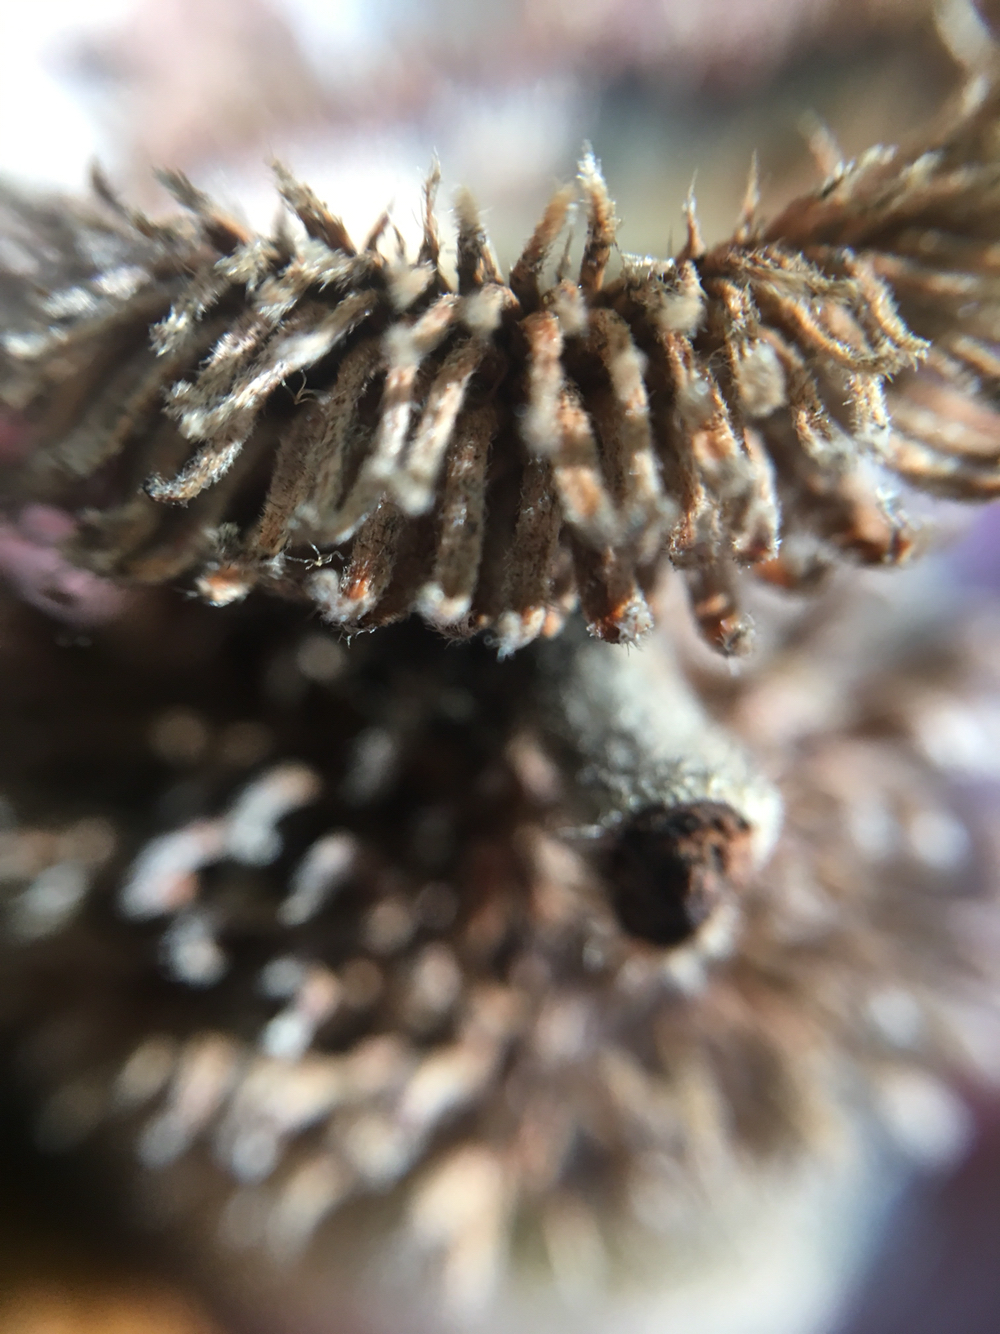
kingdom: Plantae
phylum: Tracheophyta
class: Magnoliopsida
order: Fagales
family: Fagaceae
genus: Notholithocarpus
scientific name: Notholithocarpus densiflorus
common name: Tan bark oak
